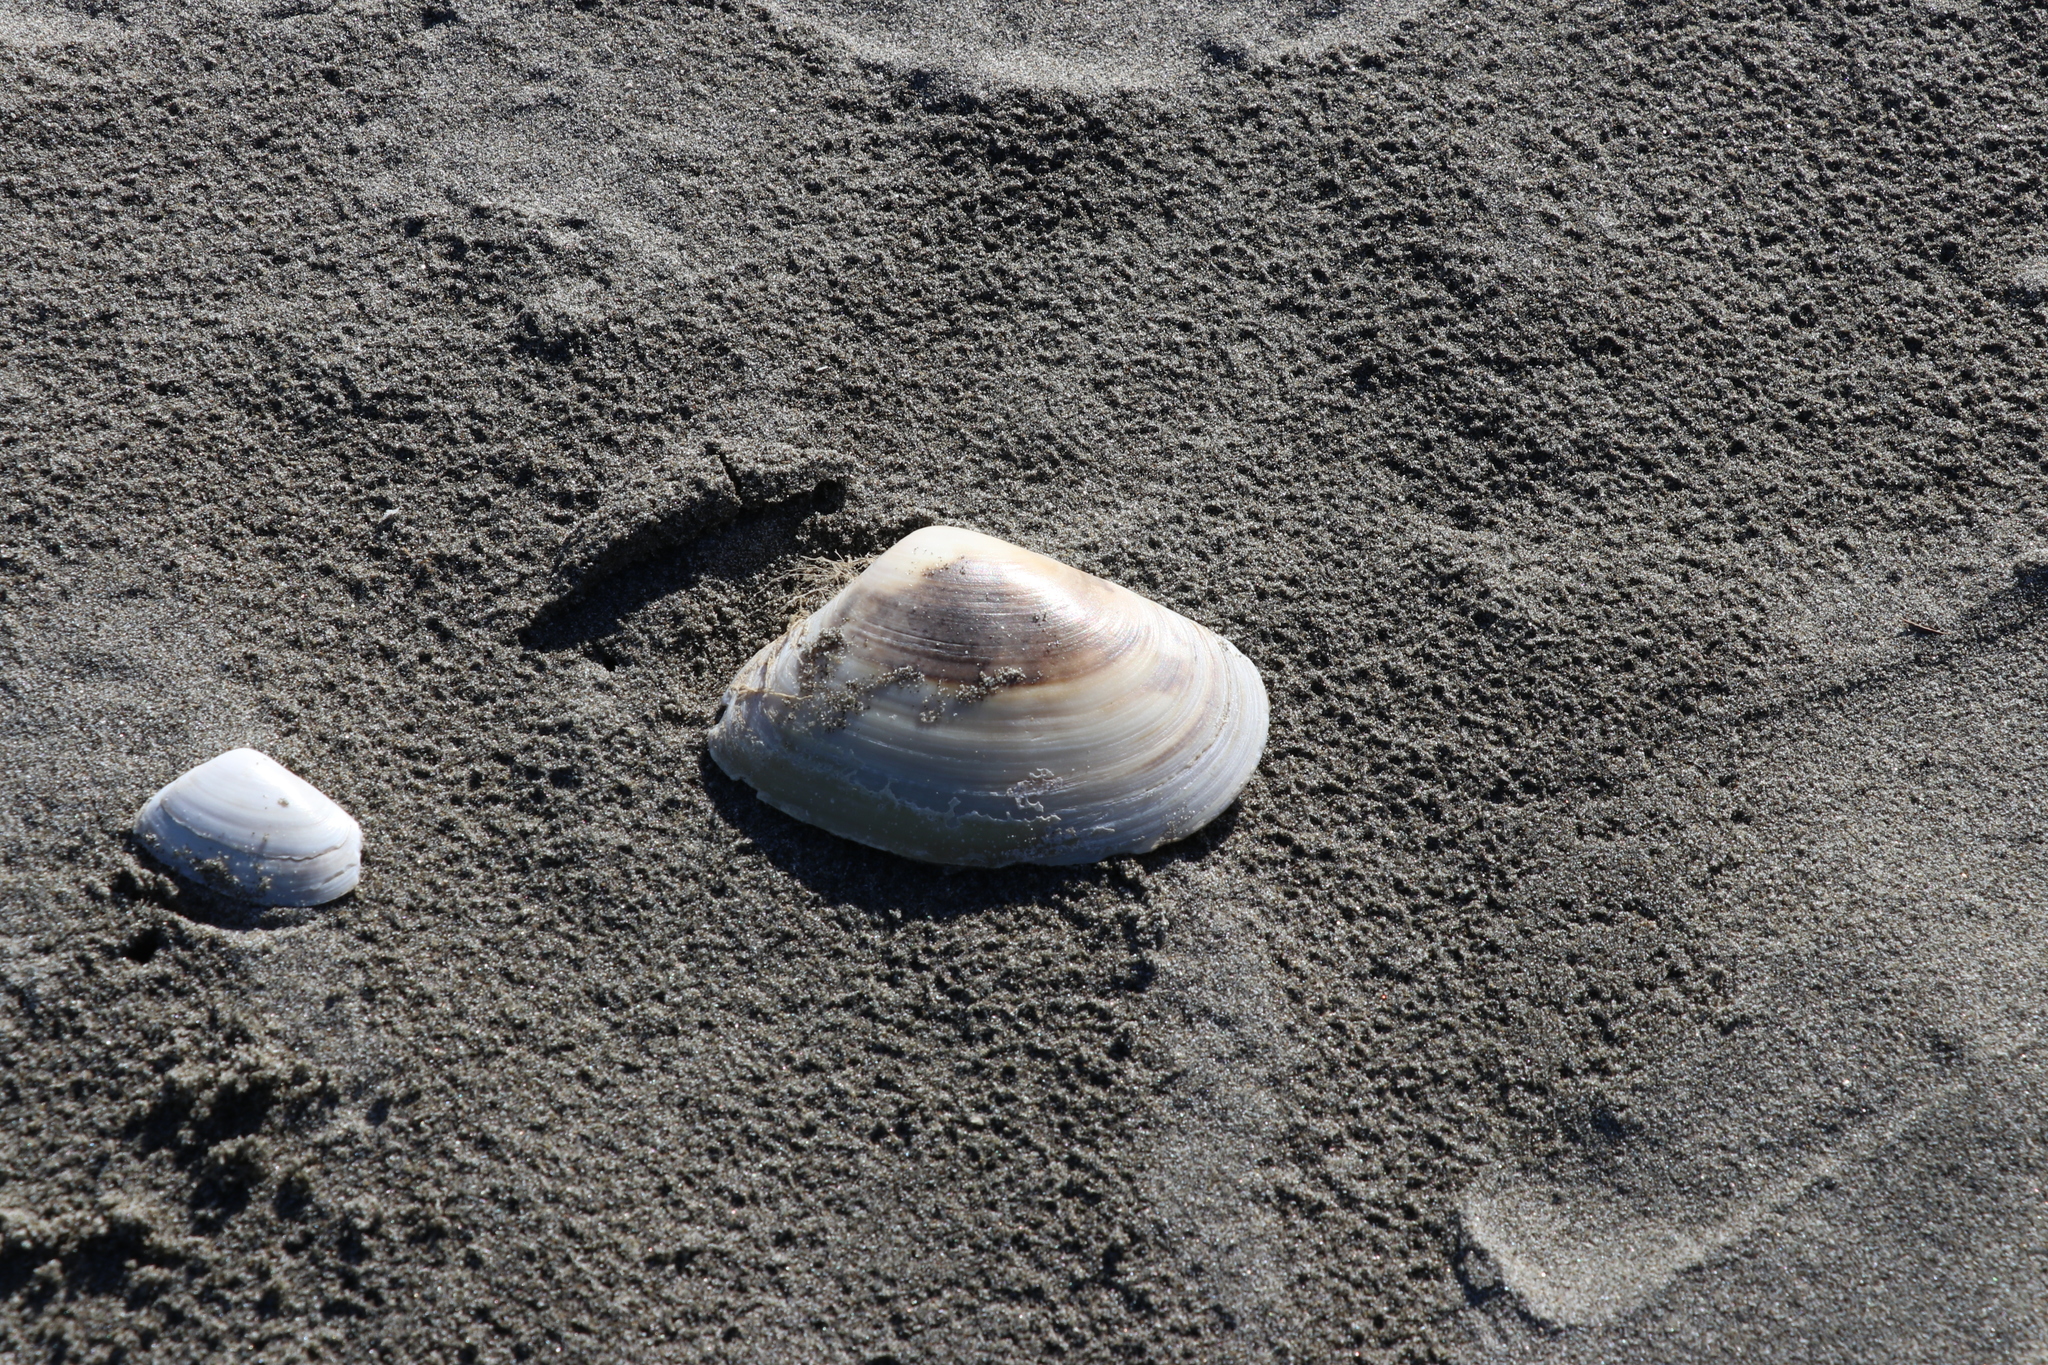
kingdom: Animalia
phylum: Mollusca
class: Bivalvia
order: Venerida
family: Mesodesmatidae
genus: Paphies
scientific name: Paphies donacina
